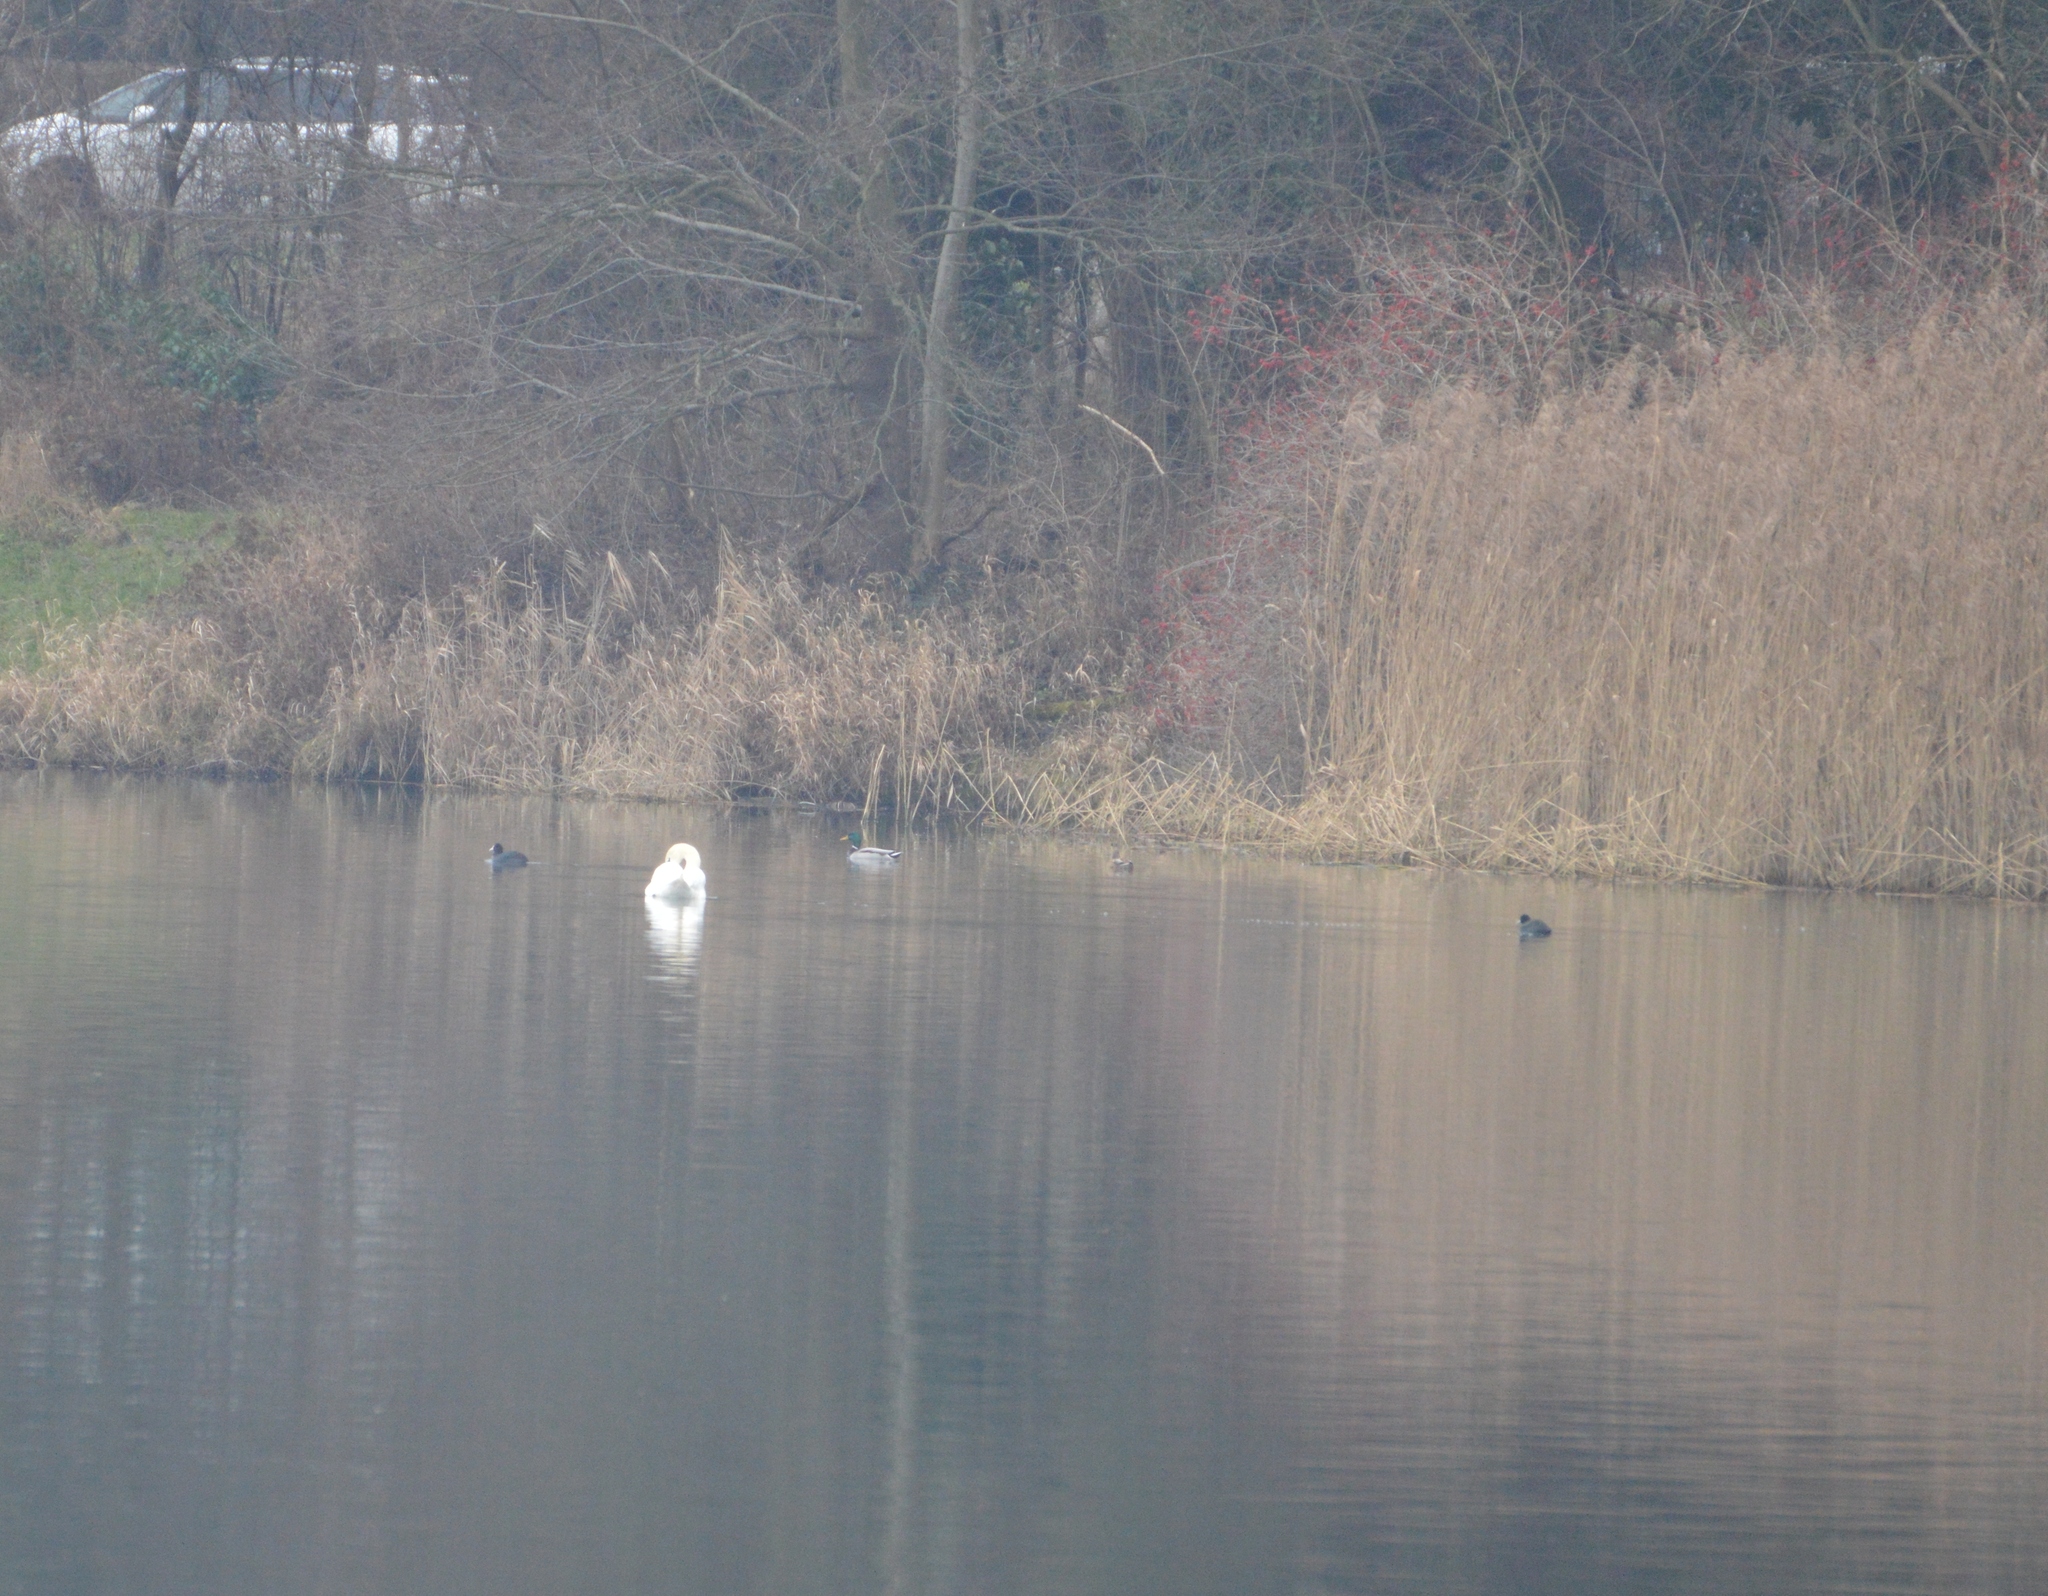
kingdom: Animalia
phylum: Chordata
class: Aves
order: Anseriformes
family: Anatidae
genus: Cygnus
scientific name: Cygnus olor
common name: Mute swan
